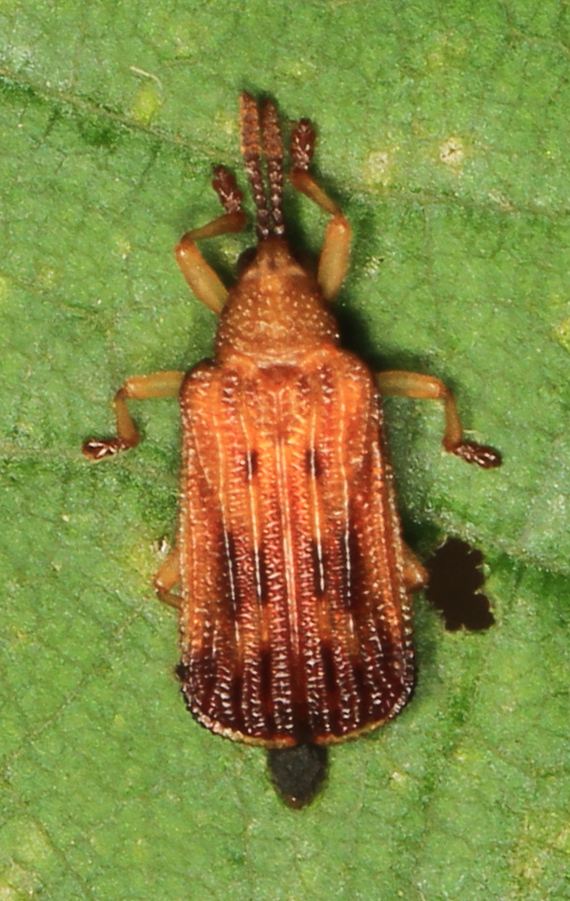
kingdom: Animalia
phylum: Arthropoda
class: Insecta
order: Coleoptera
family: Chrysomelidae
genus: Baliosus
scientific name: Baliosus nervosus
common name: Basswood leaf miner
